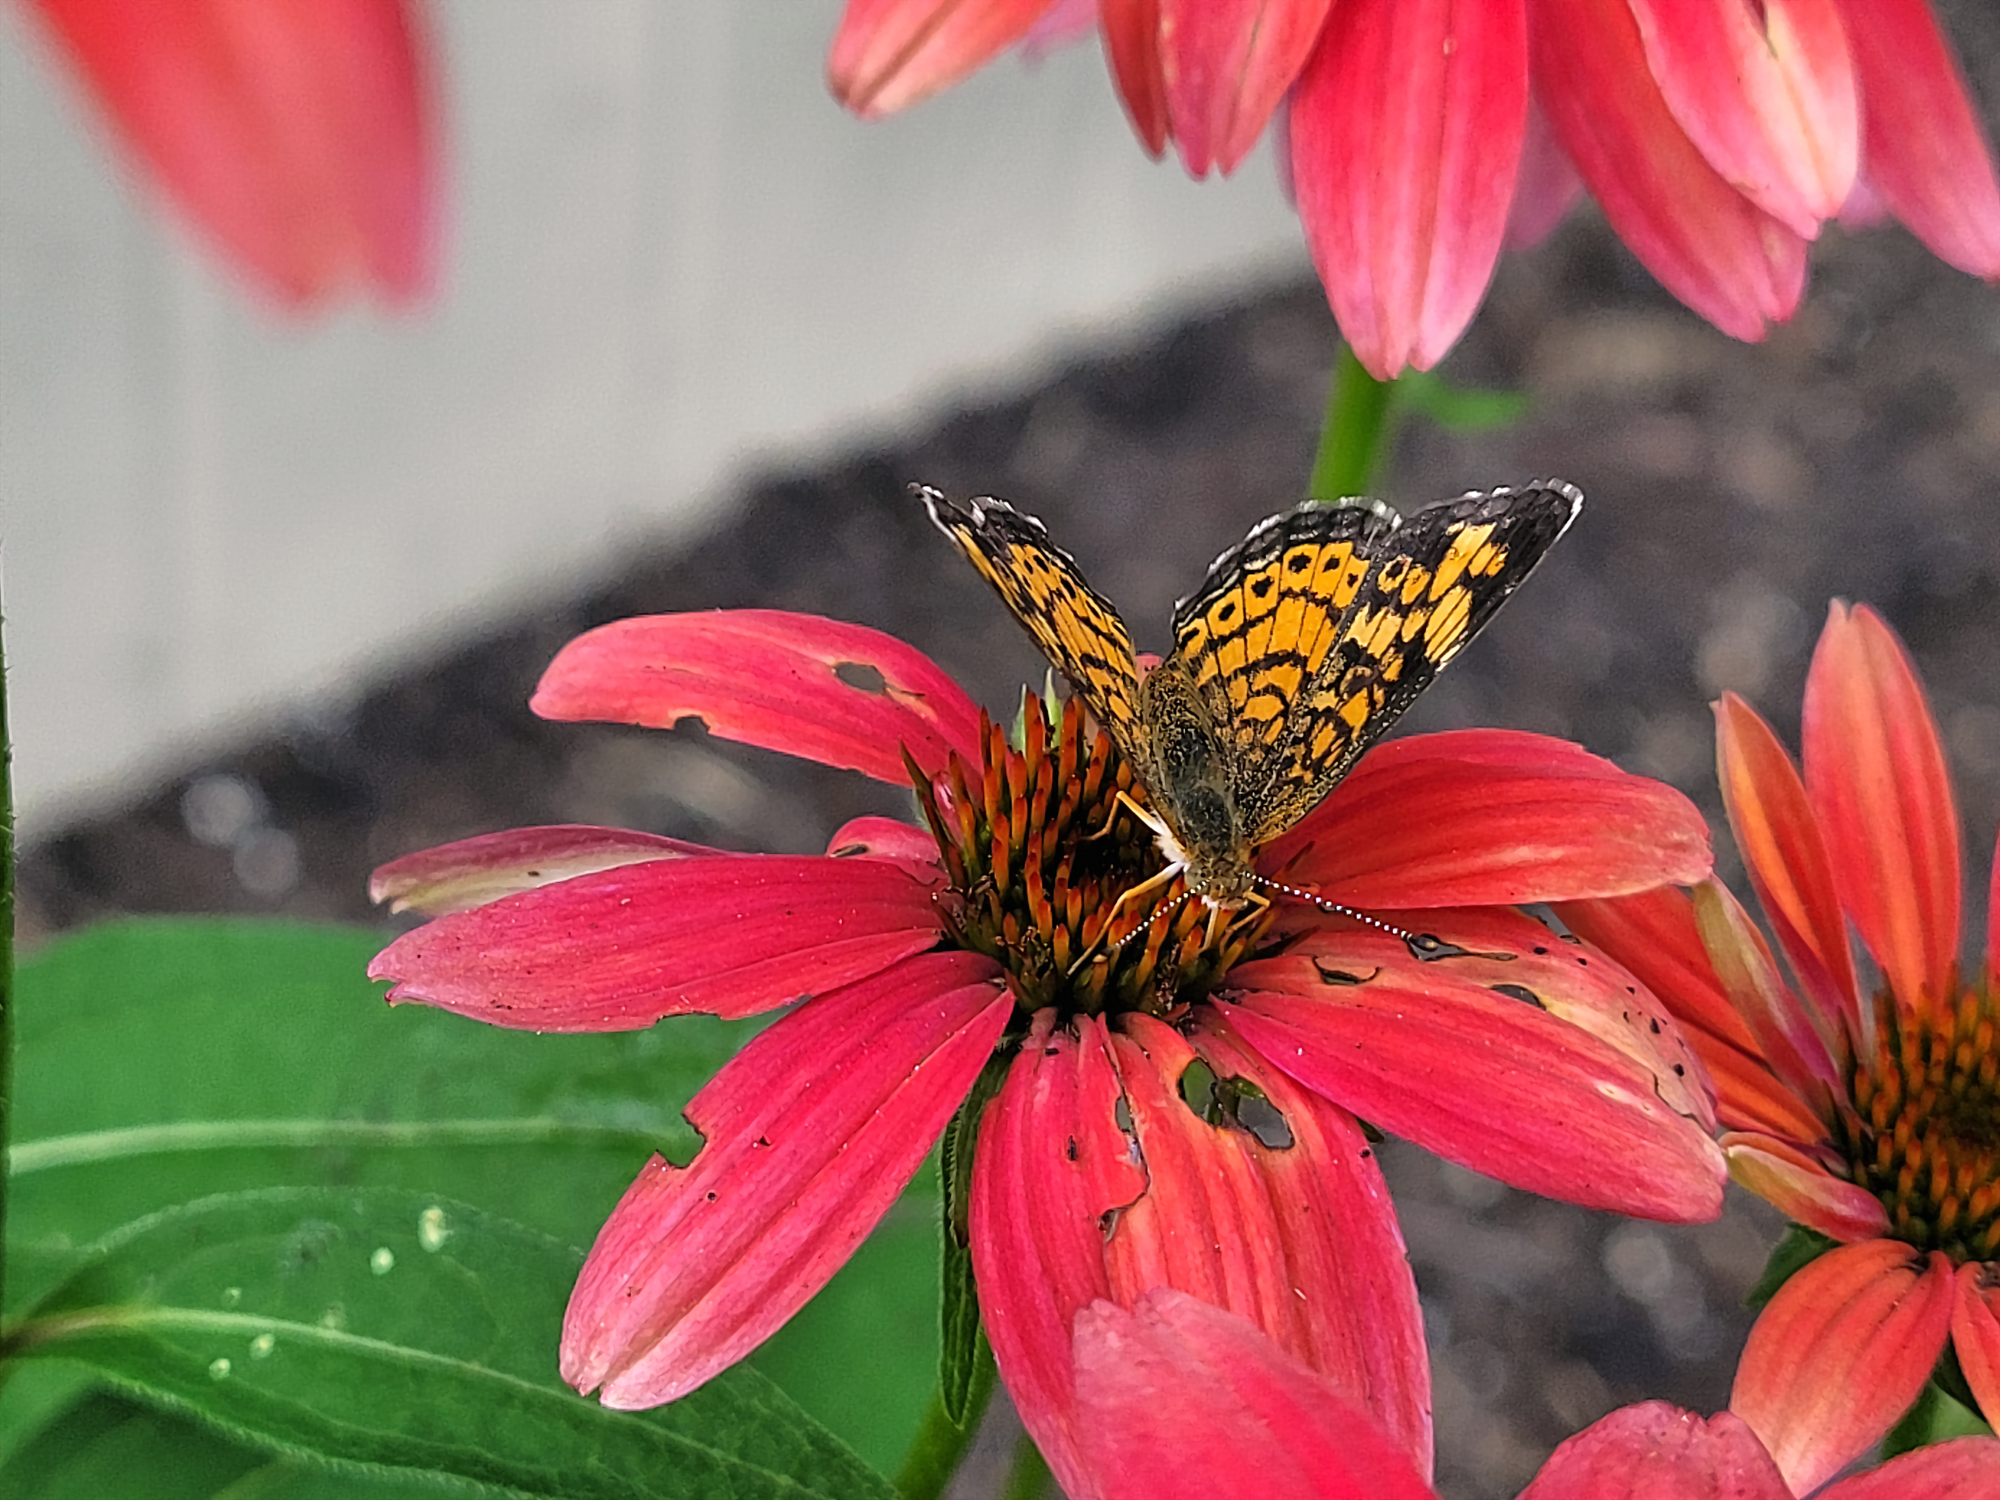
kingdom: Animalia
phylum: Arthropoda
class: Insecta
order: Lepidoptera
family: Nymphalidae
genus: Phyciodes
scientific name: Phyciodes tharos
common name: Pearl crescent
